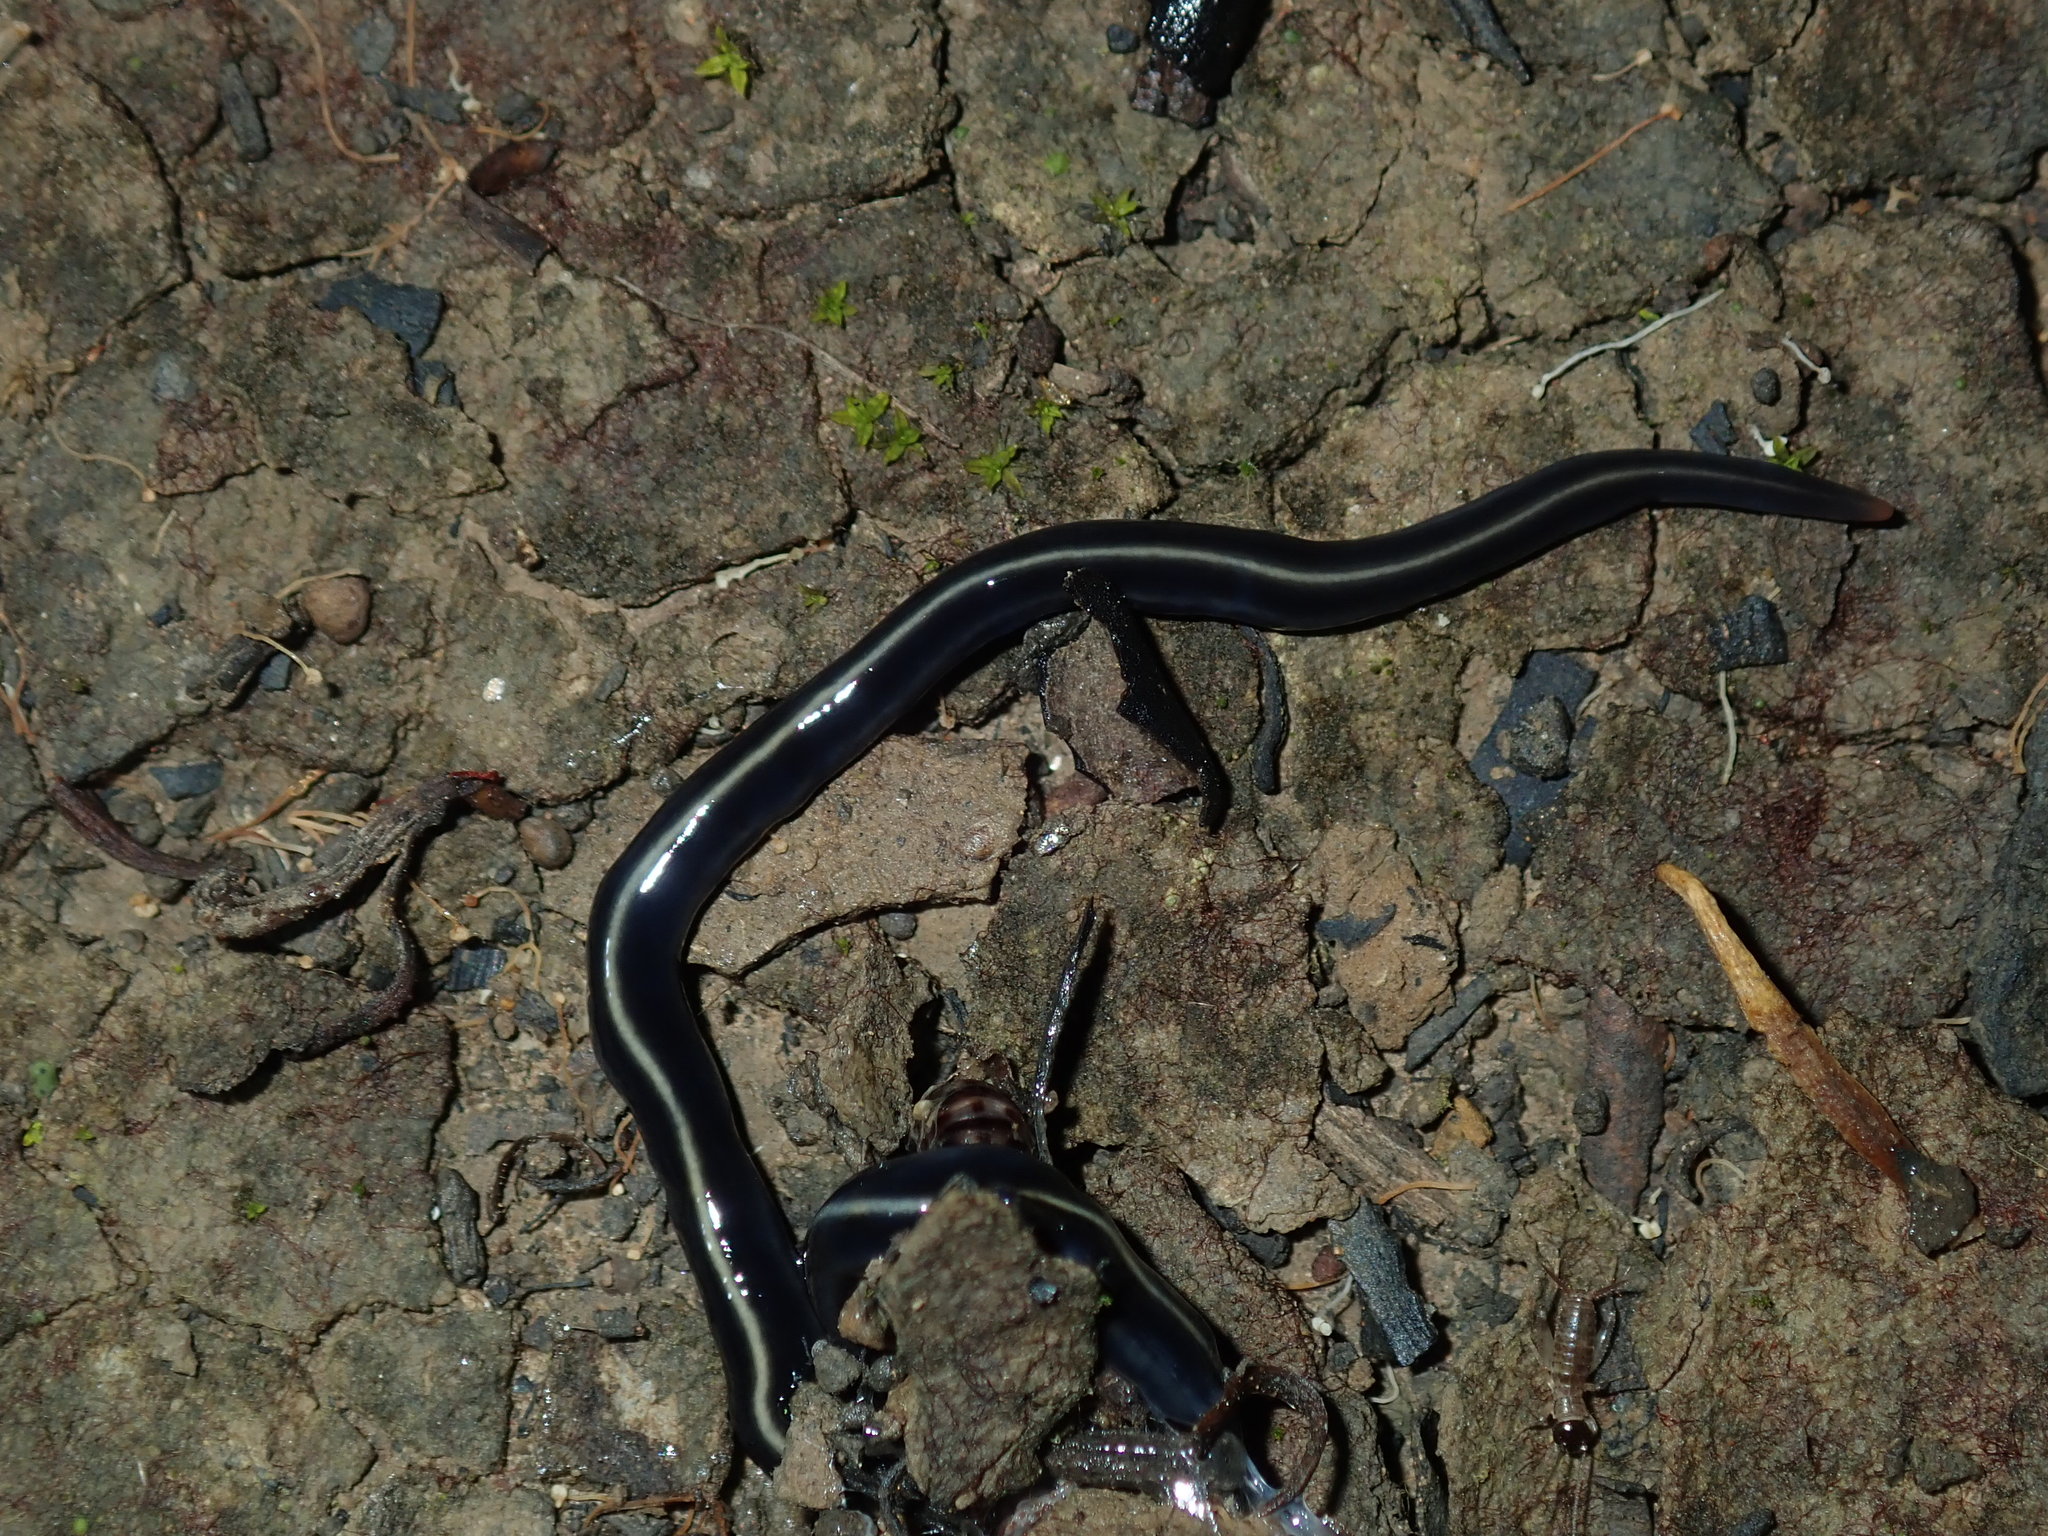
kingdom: Animalia
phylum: Platyhelminthes
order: Tricladida
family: Geoplanidae
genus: Caenoplana
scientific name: Caenoplana coerulea
